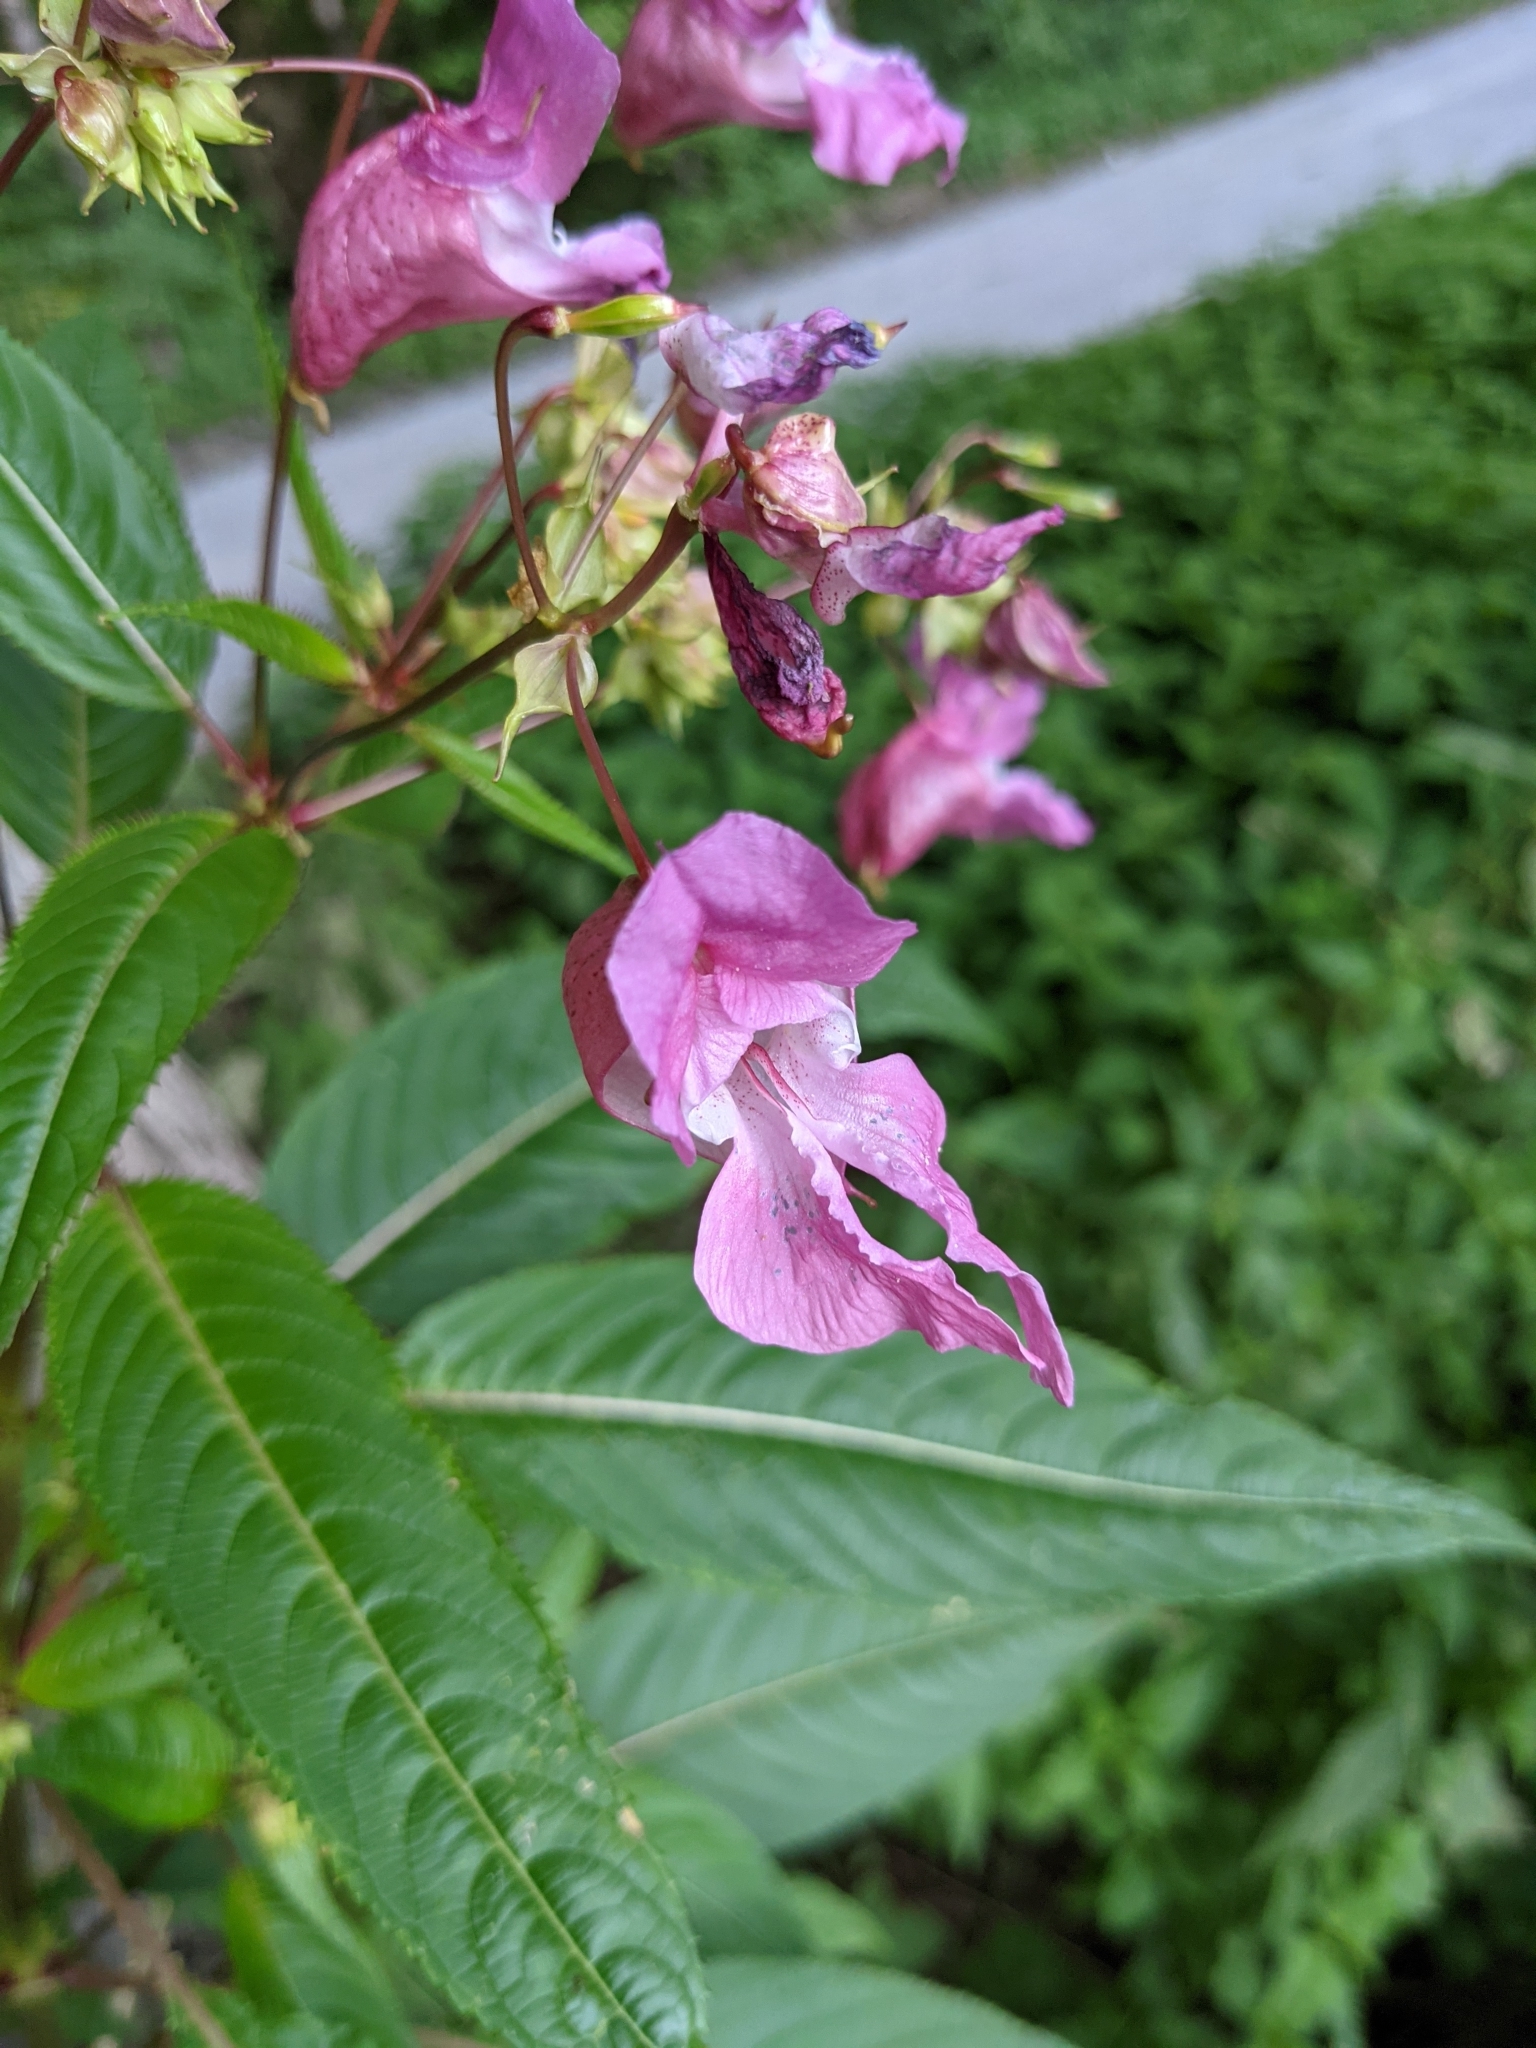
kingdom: Plantae
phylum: Tracheophyta
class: Magnoliopsida
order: Ericales
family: Balsaminaceae
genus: Impatiens
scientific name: Impatiens glandulifera
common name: Himalayan balsam
